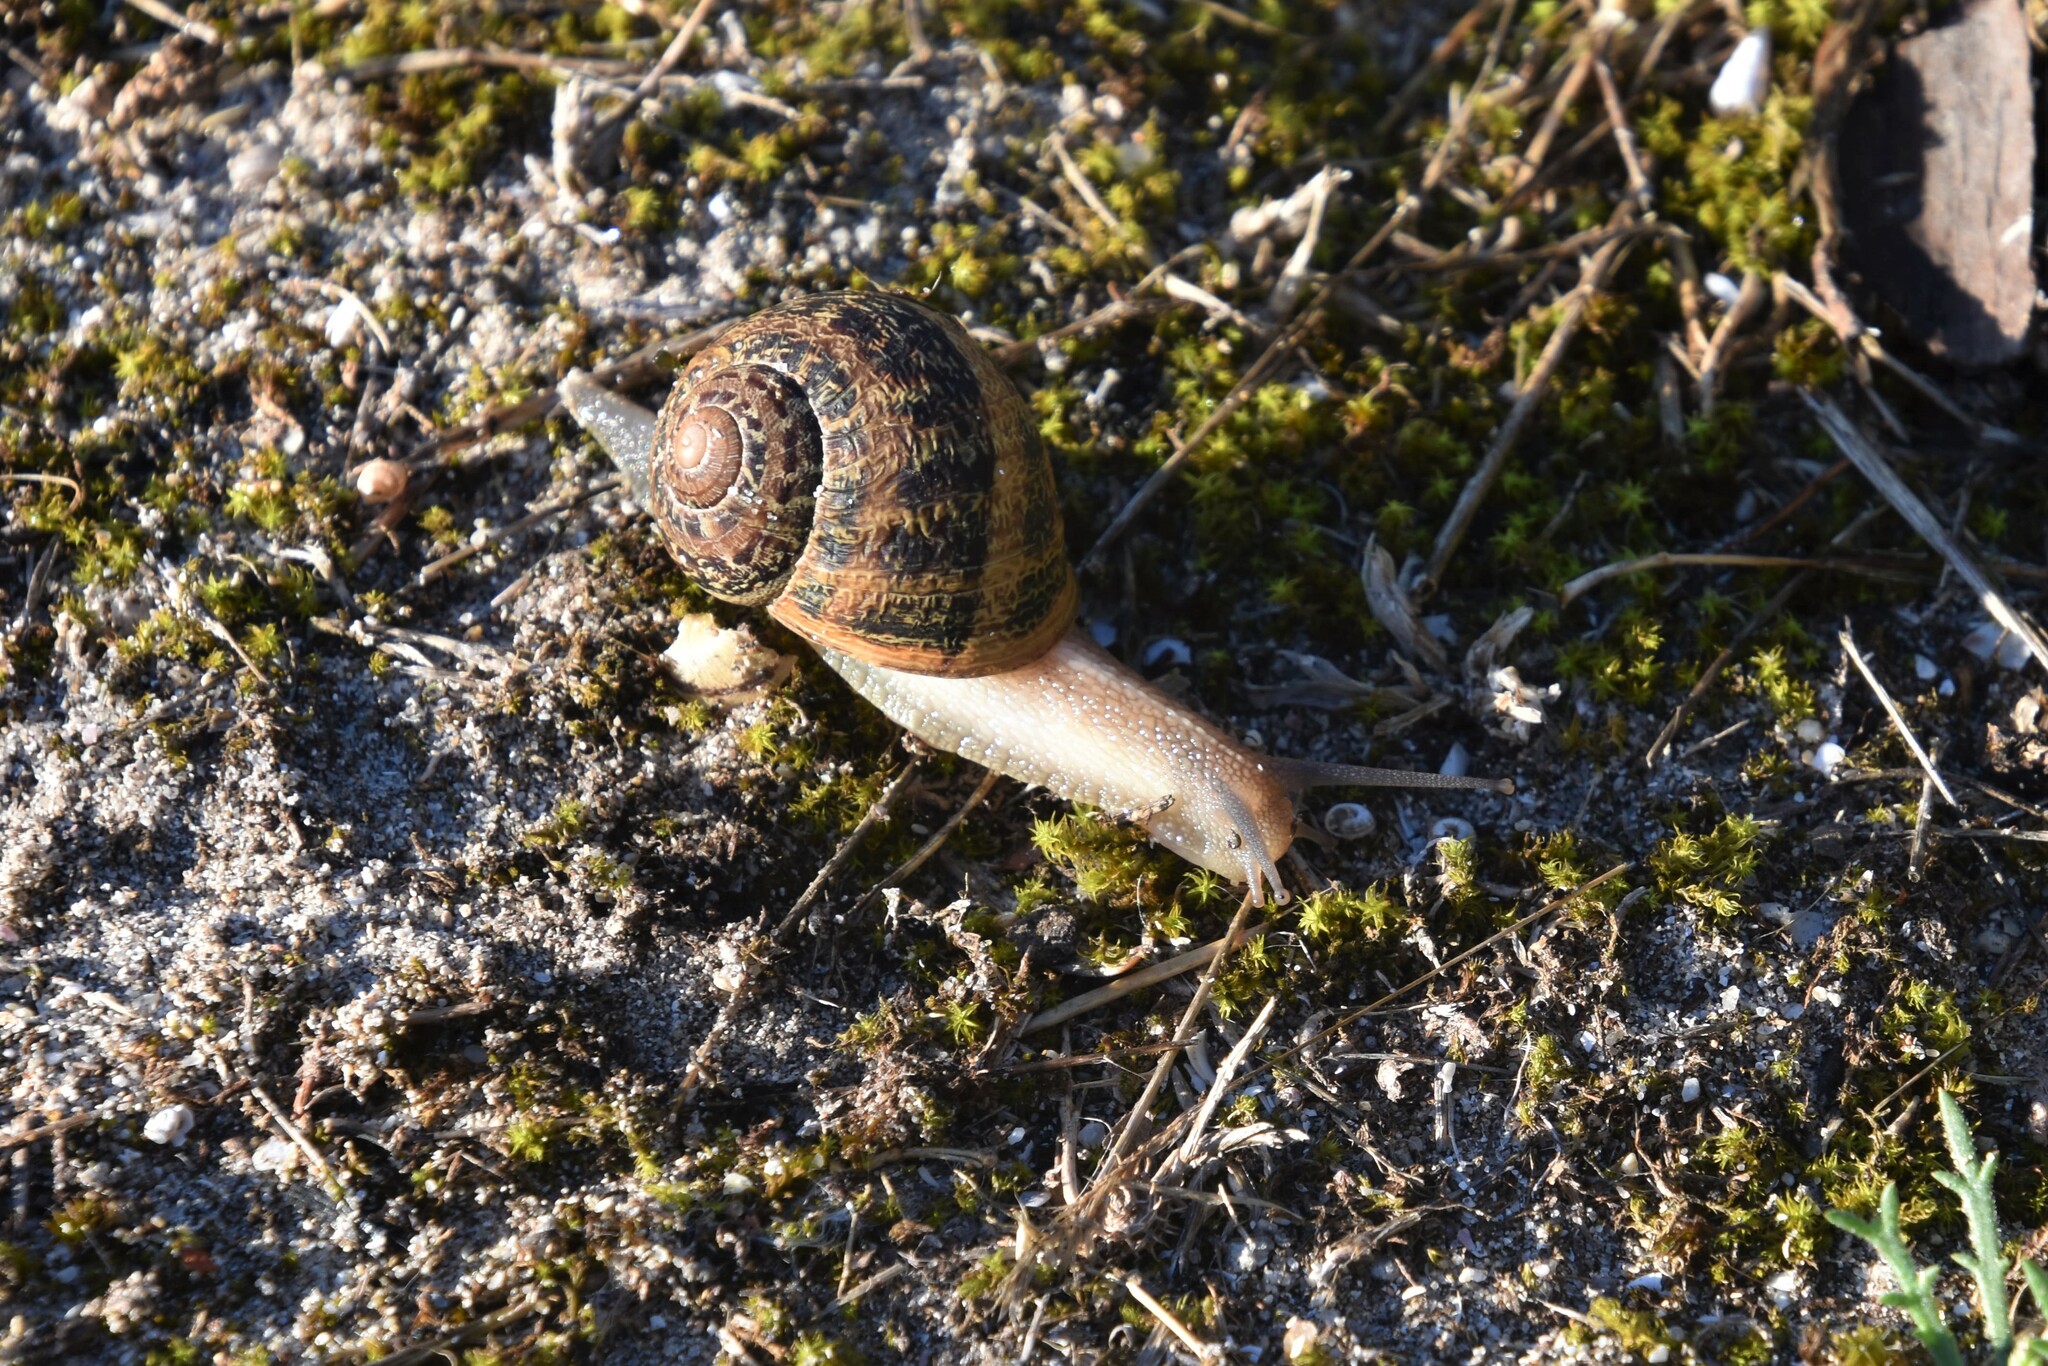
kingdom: Animalia
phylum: Mollusca
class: Gastropoda
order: Stylommatophora
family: Helicidae
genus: Cornu
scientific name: Cornu aspersum
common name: Brown garden snail
